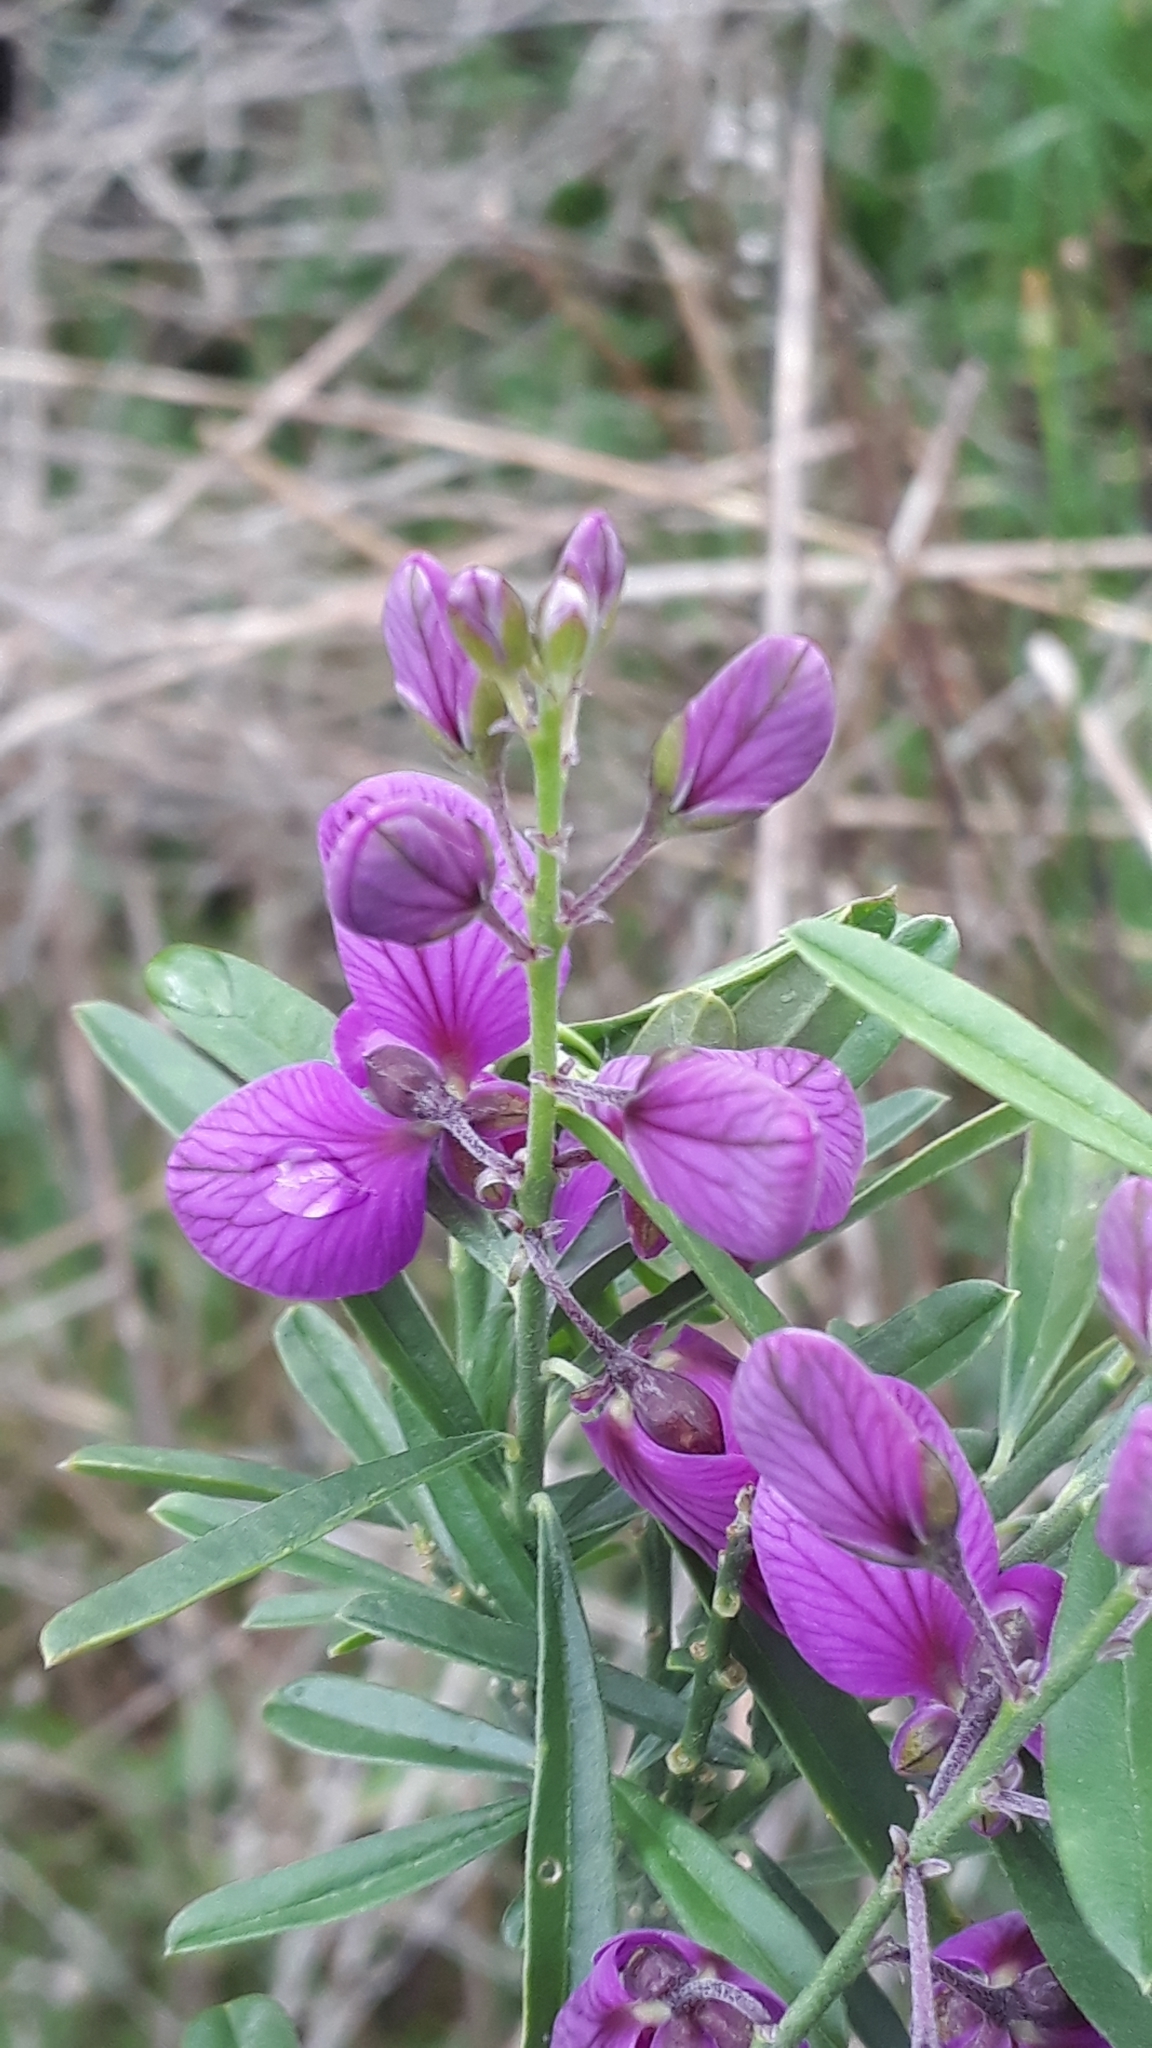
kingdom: Plantae
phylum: Tracheophyta
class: Magnoliopsida
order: Fabales
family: Polygalaceae
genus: Polygala
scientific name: Polygala virgata
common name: Milkwort
